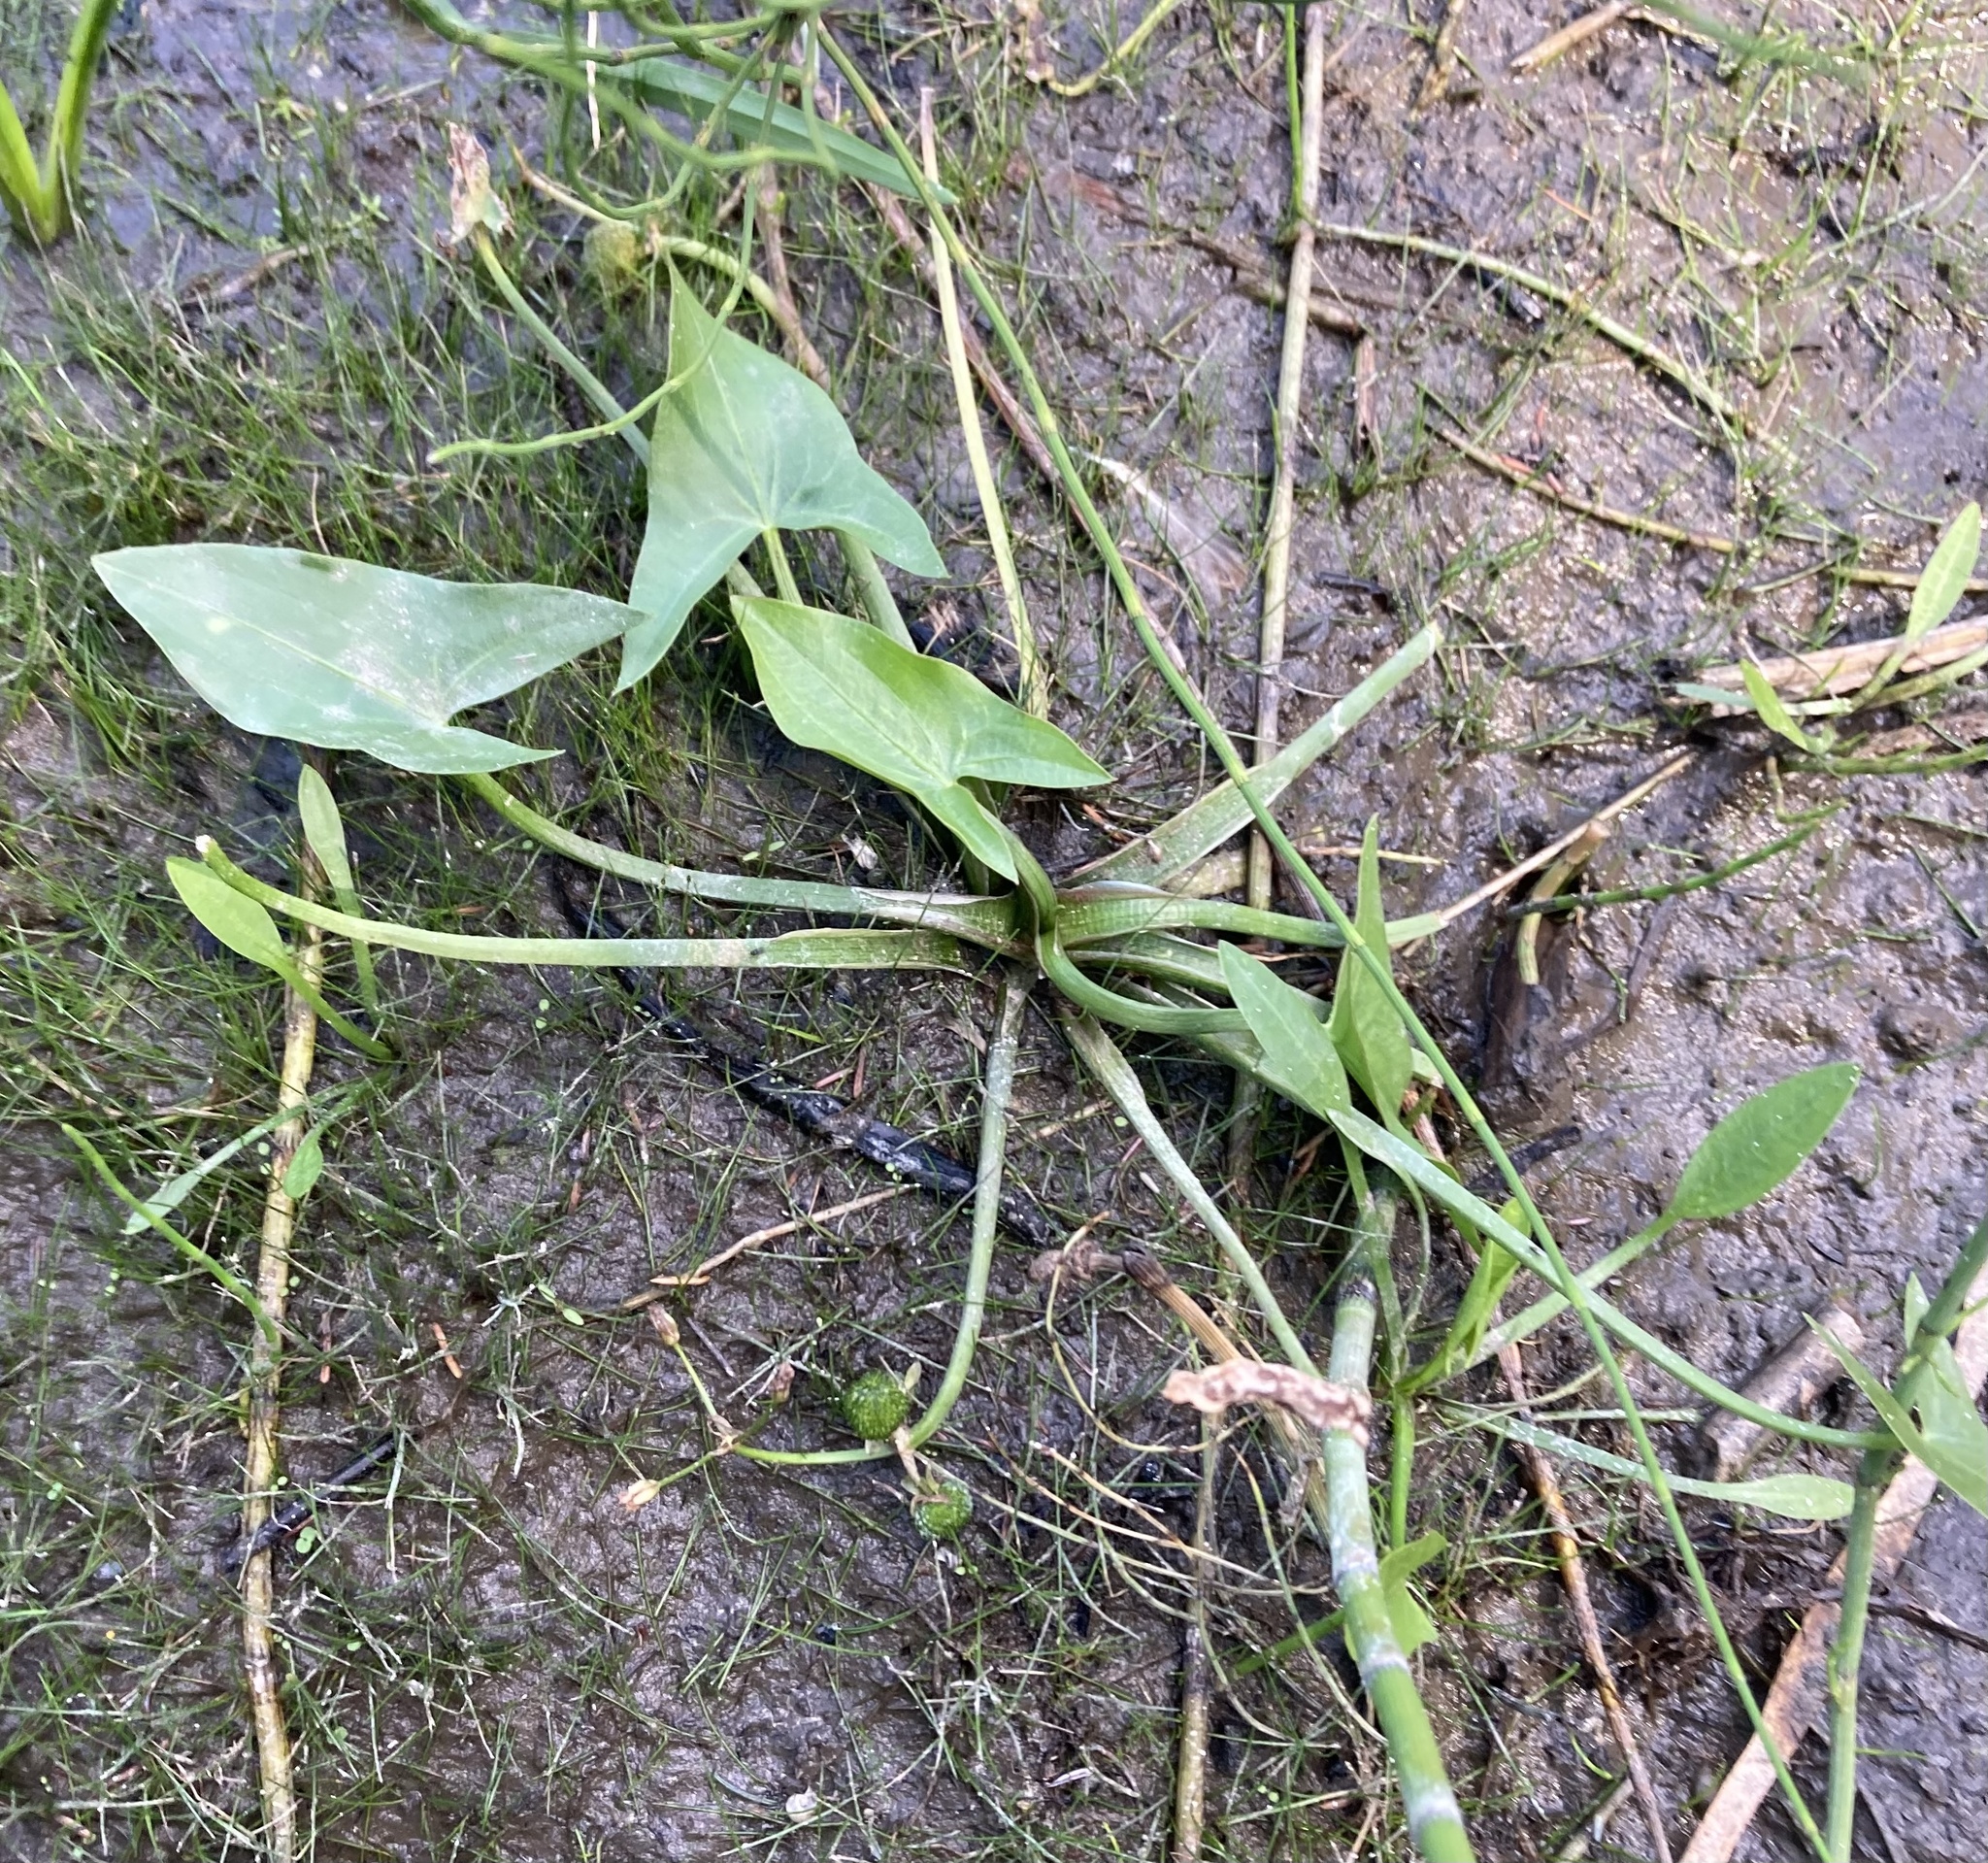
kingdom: Plantae
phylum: Tracheophyta
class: Liliopsida
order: Alismatales
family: Alismataceae
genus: Sagittaria
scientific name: Sagittaria cuneata
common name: Northern arrowhead
